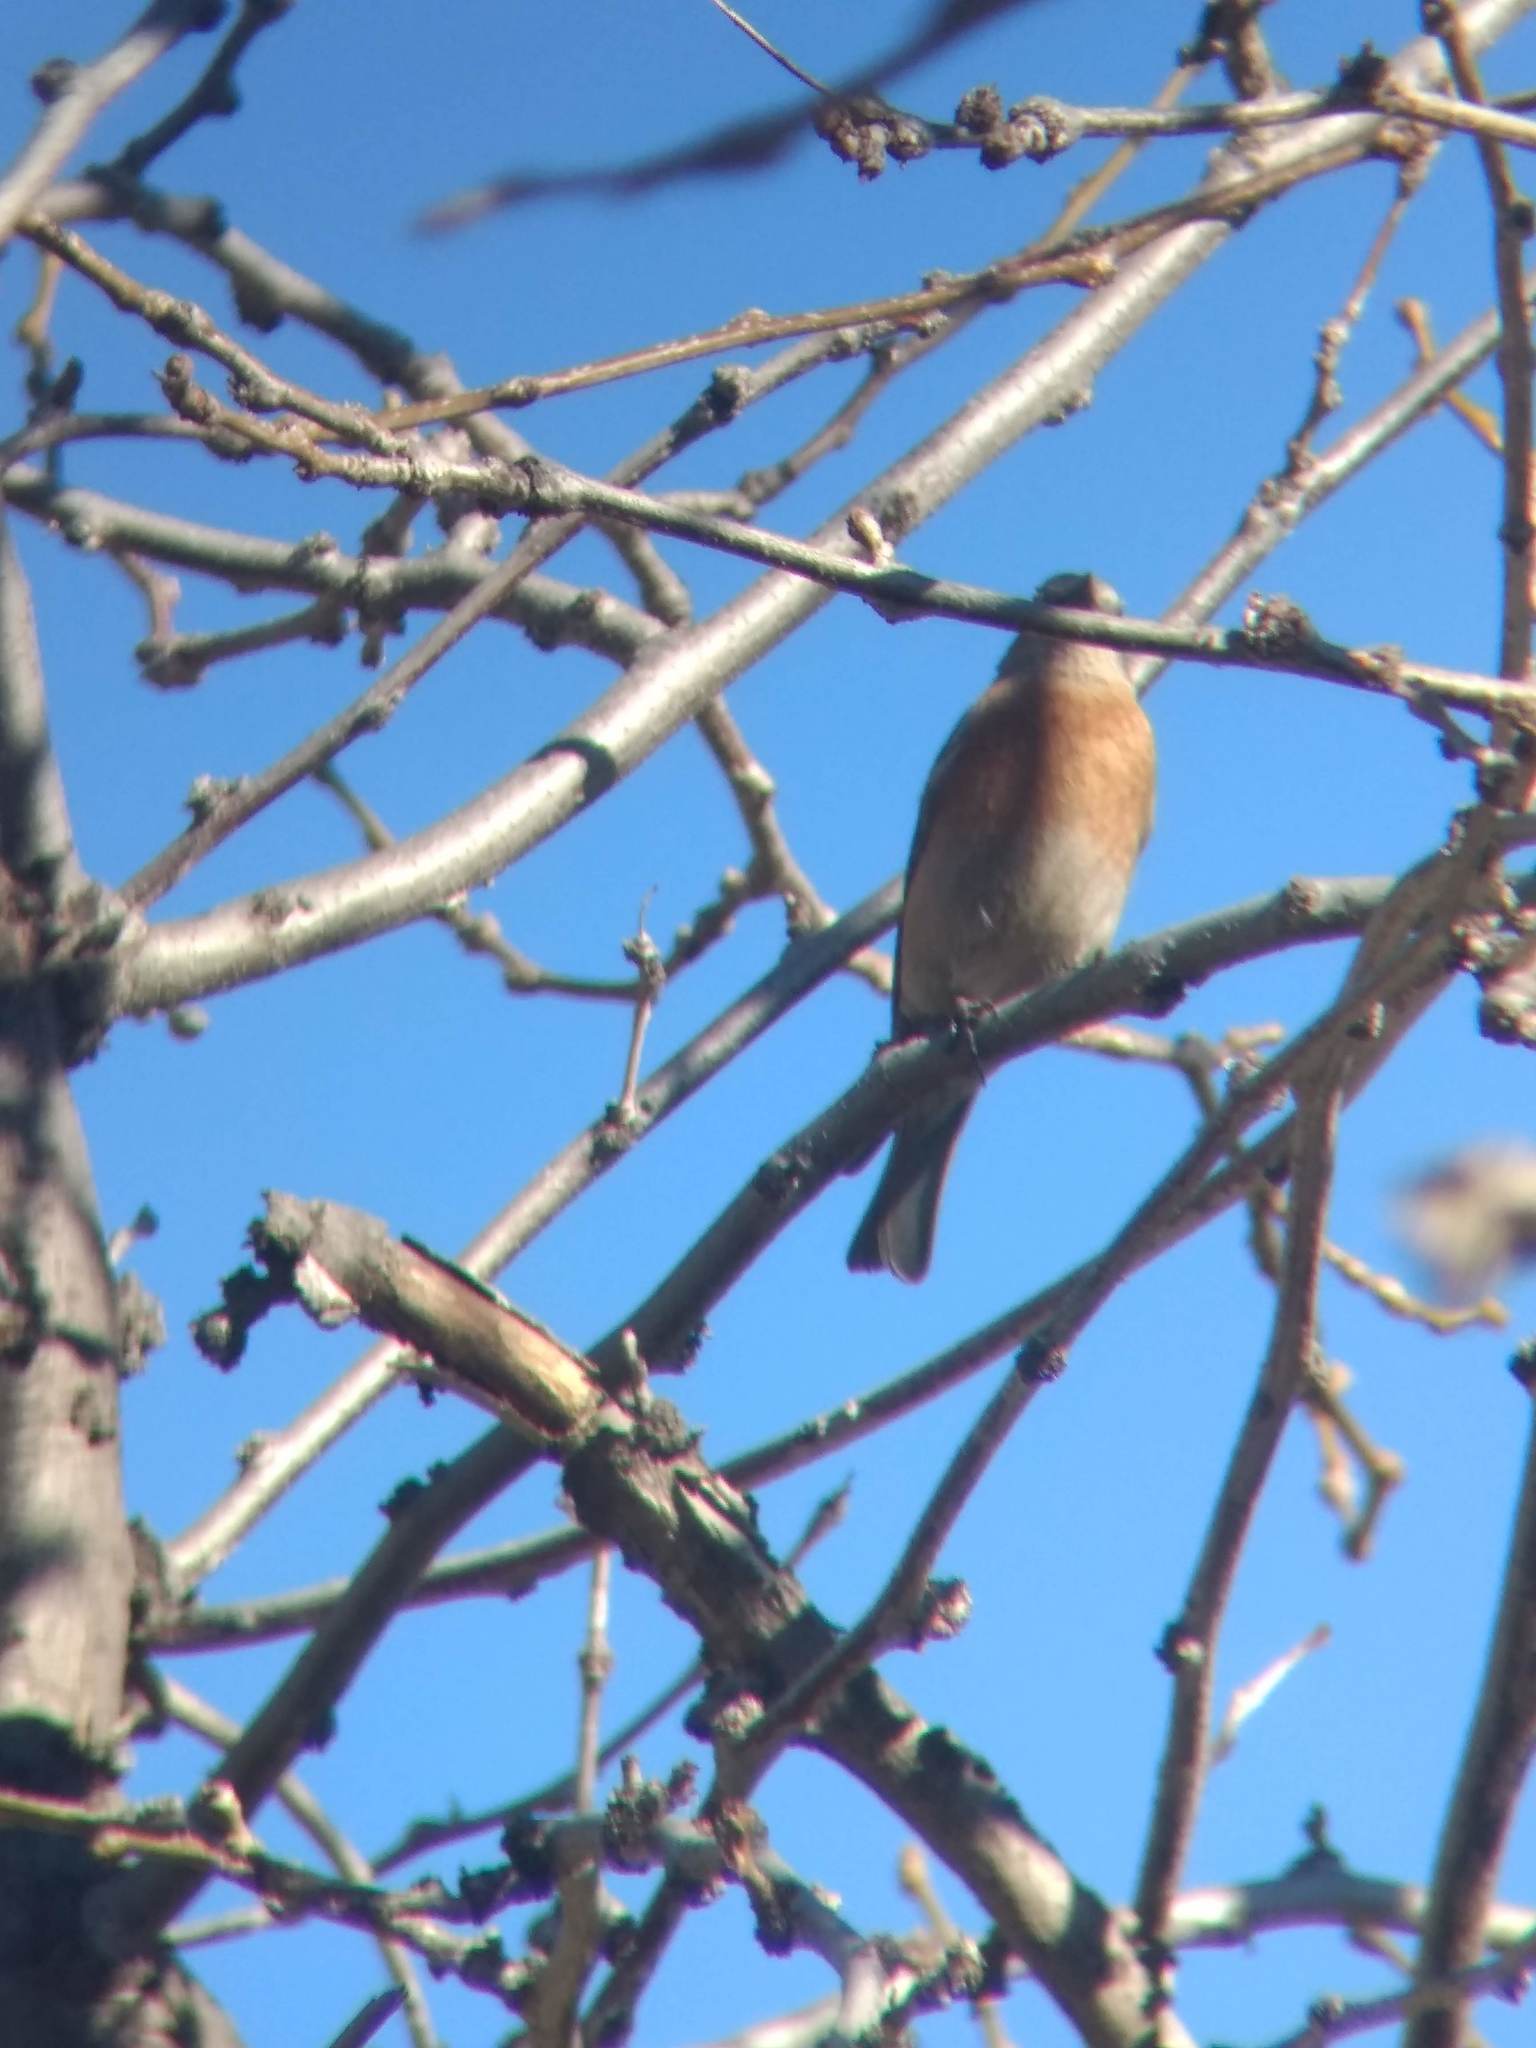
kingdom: Animalia
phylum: Chordata
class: Aves
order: Passeriformes
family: Turdidae
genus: Sialia
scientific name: Sialia mexicana
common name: Western bluebird
